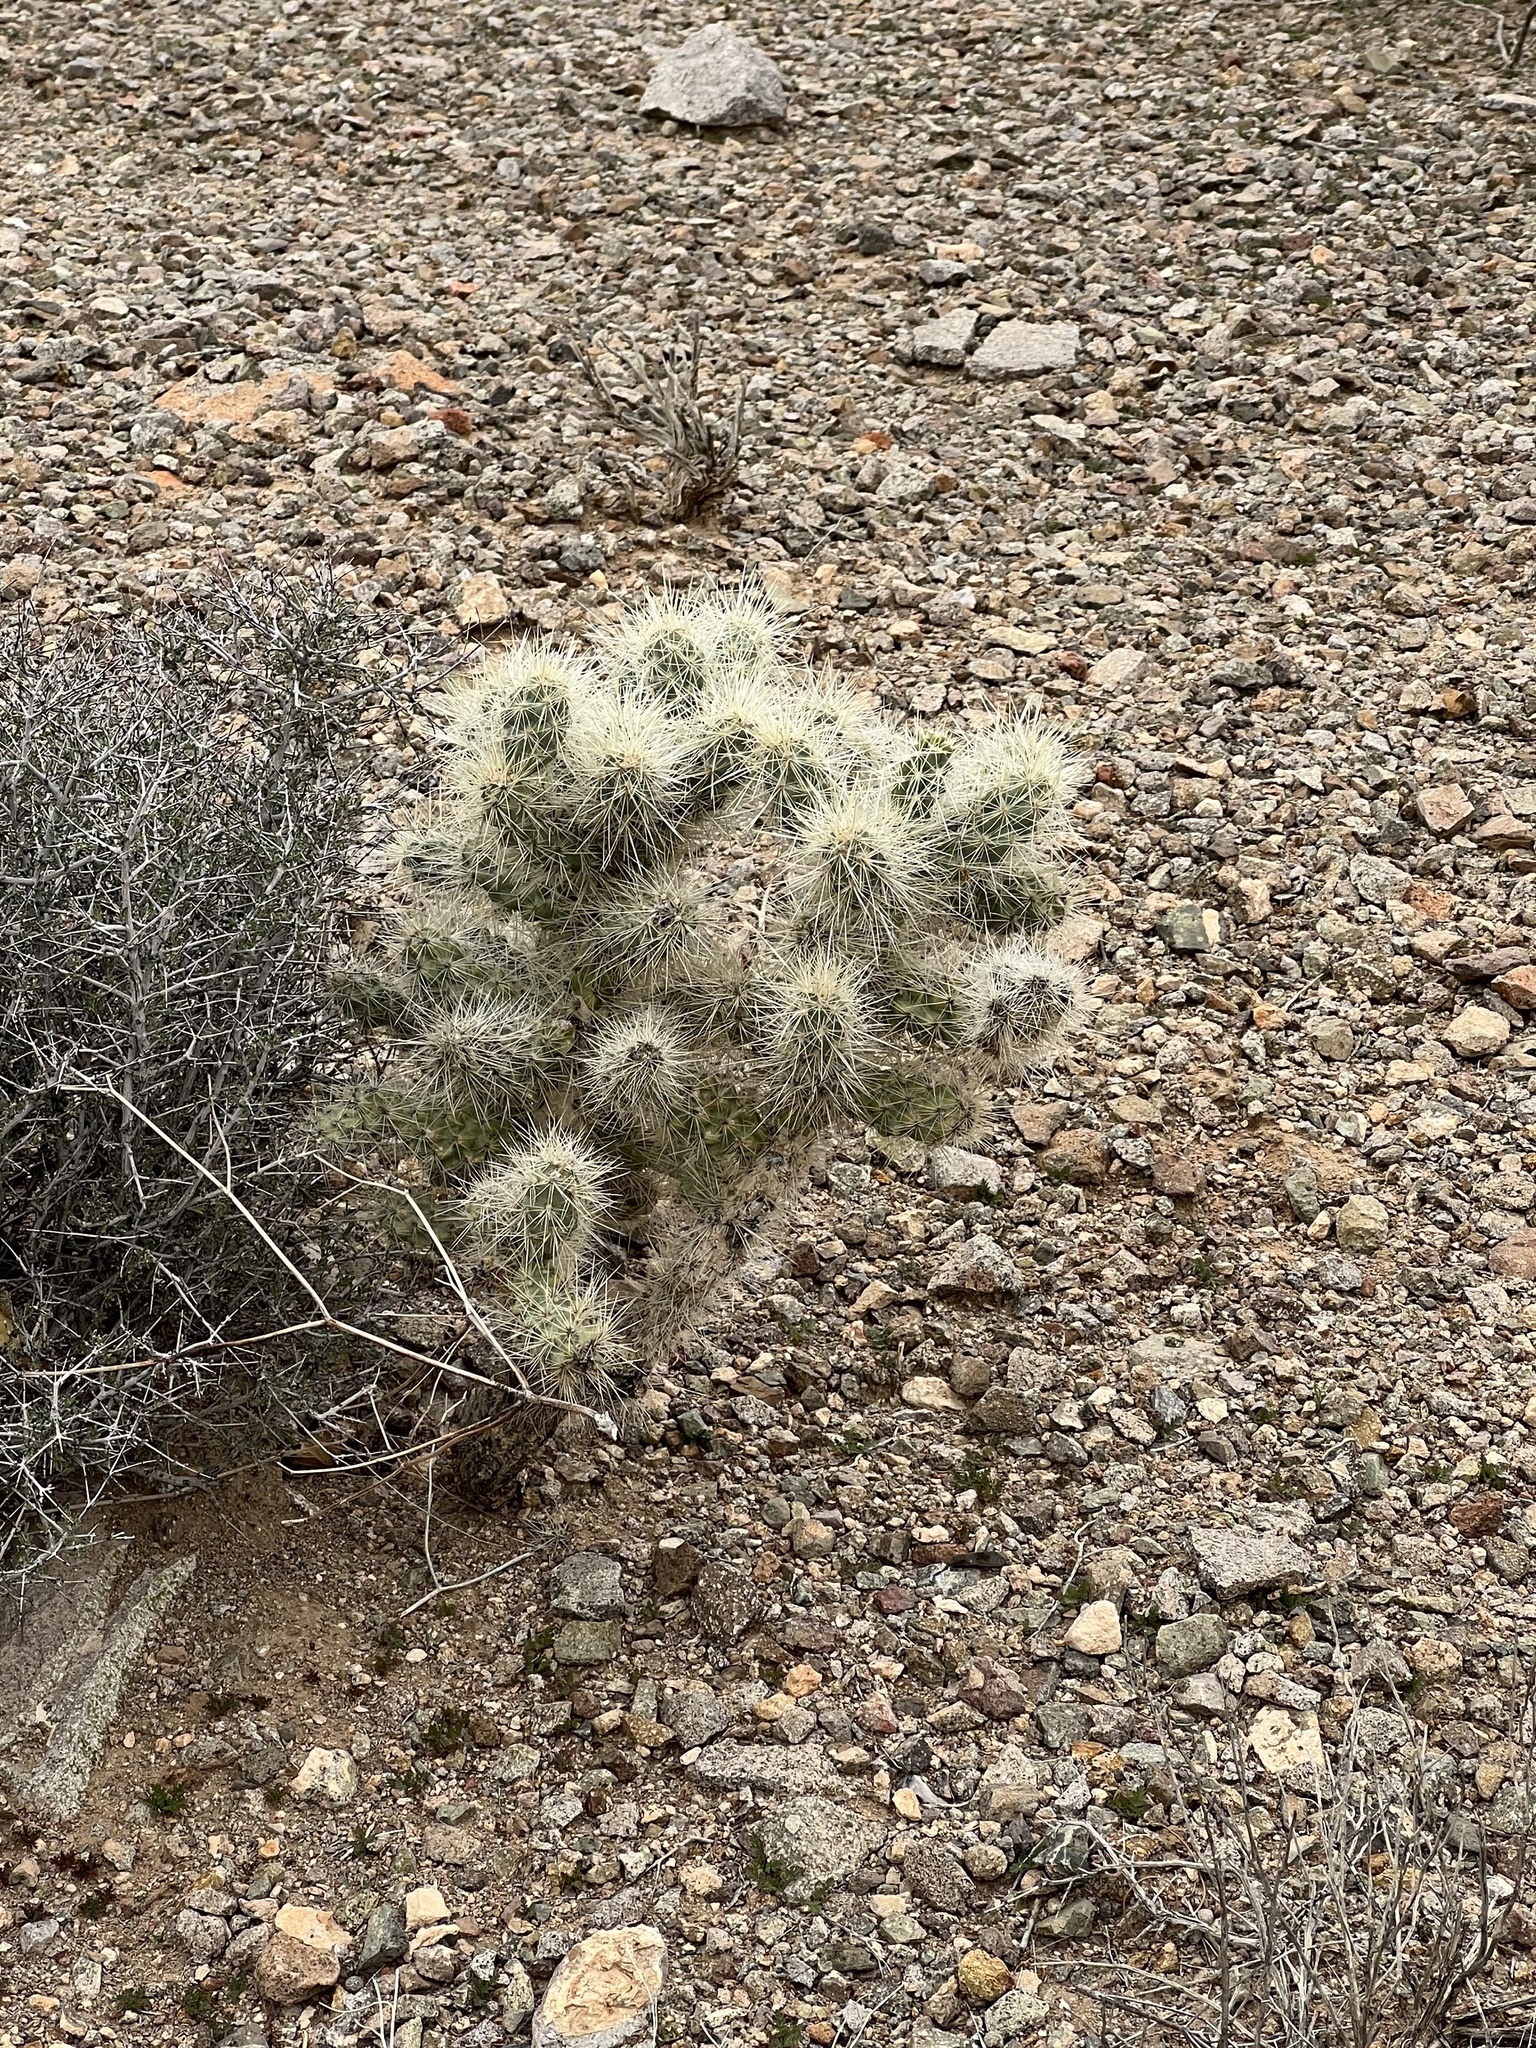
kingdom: Plantae
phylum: Tracheophyta
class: Magnoliopsida
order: Caryophyllales
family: Cactaceae
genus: Cylindropuntia
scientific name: Cylindropuntia echinocarpa
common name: Ground cholla
